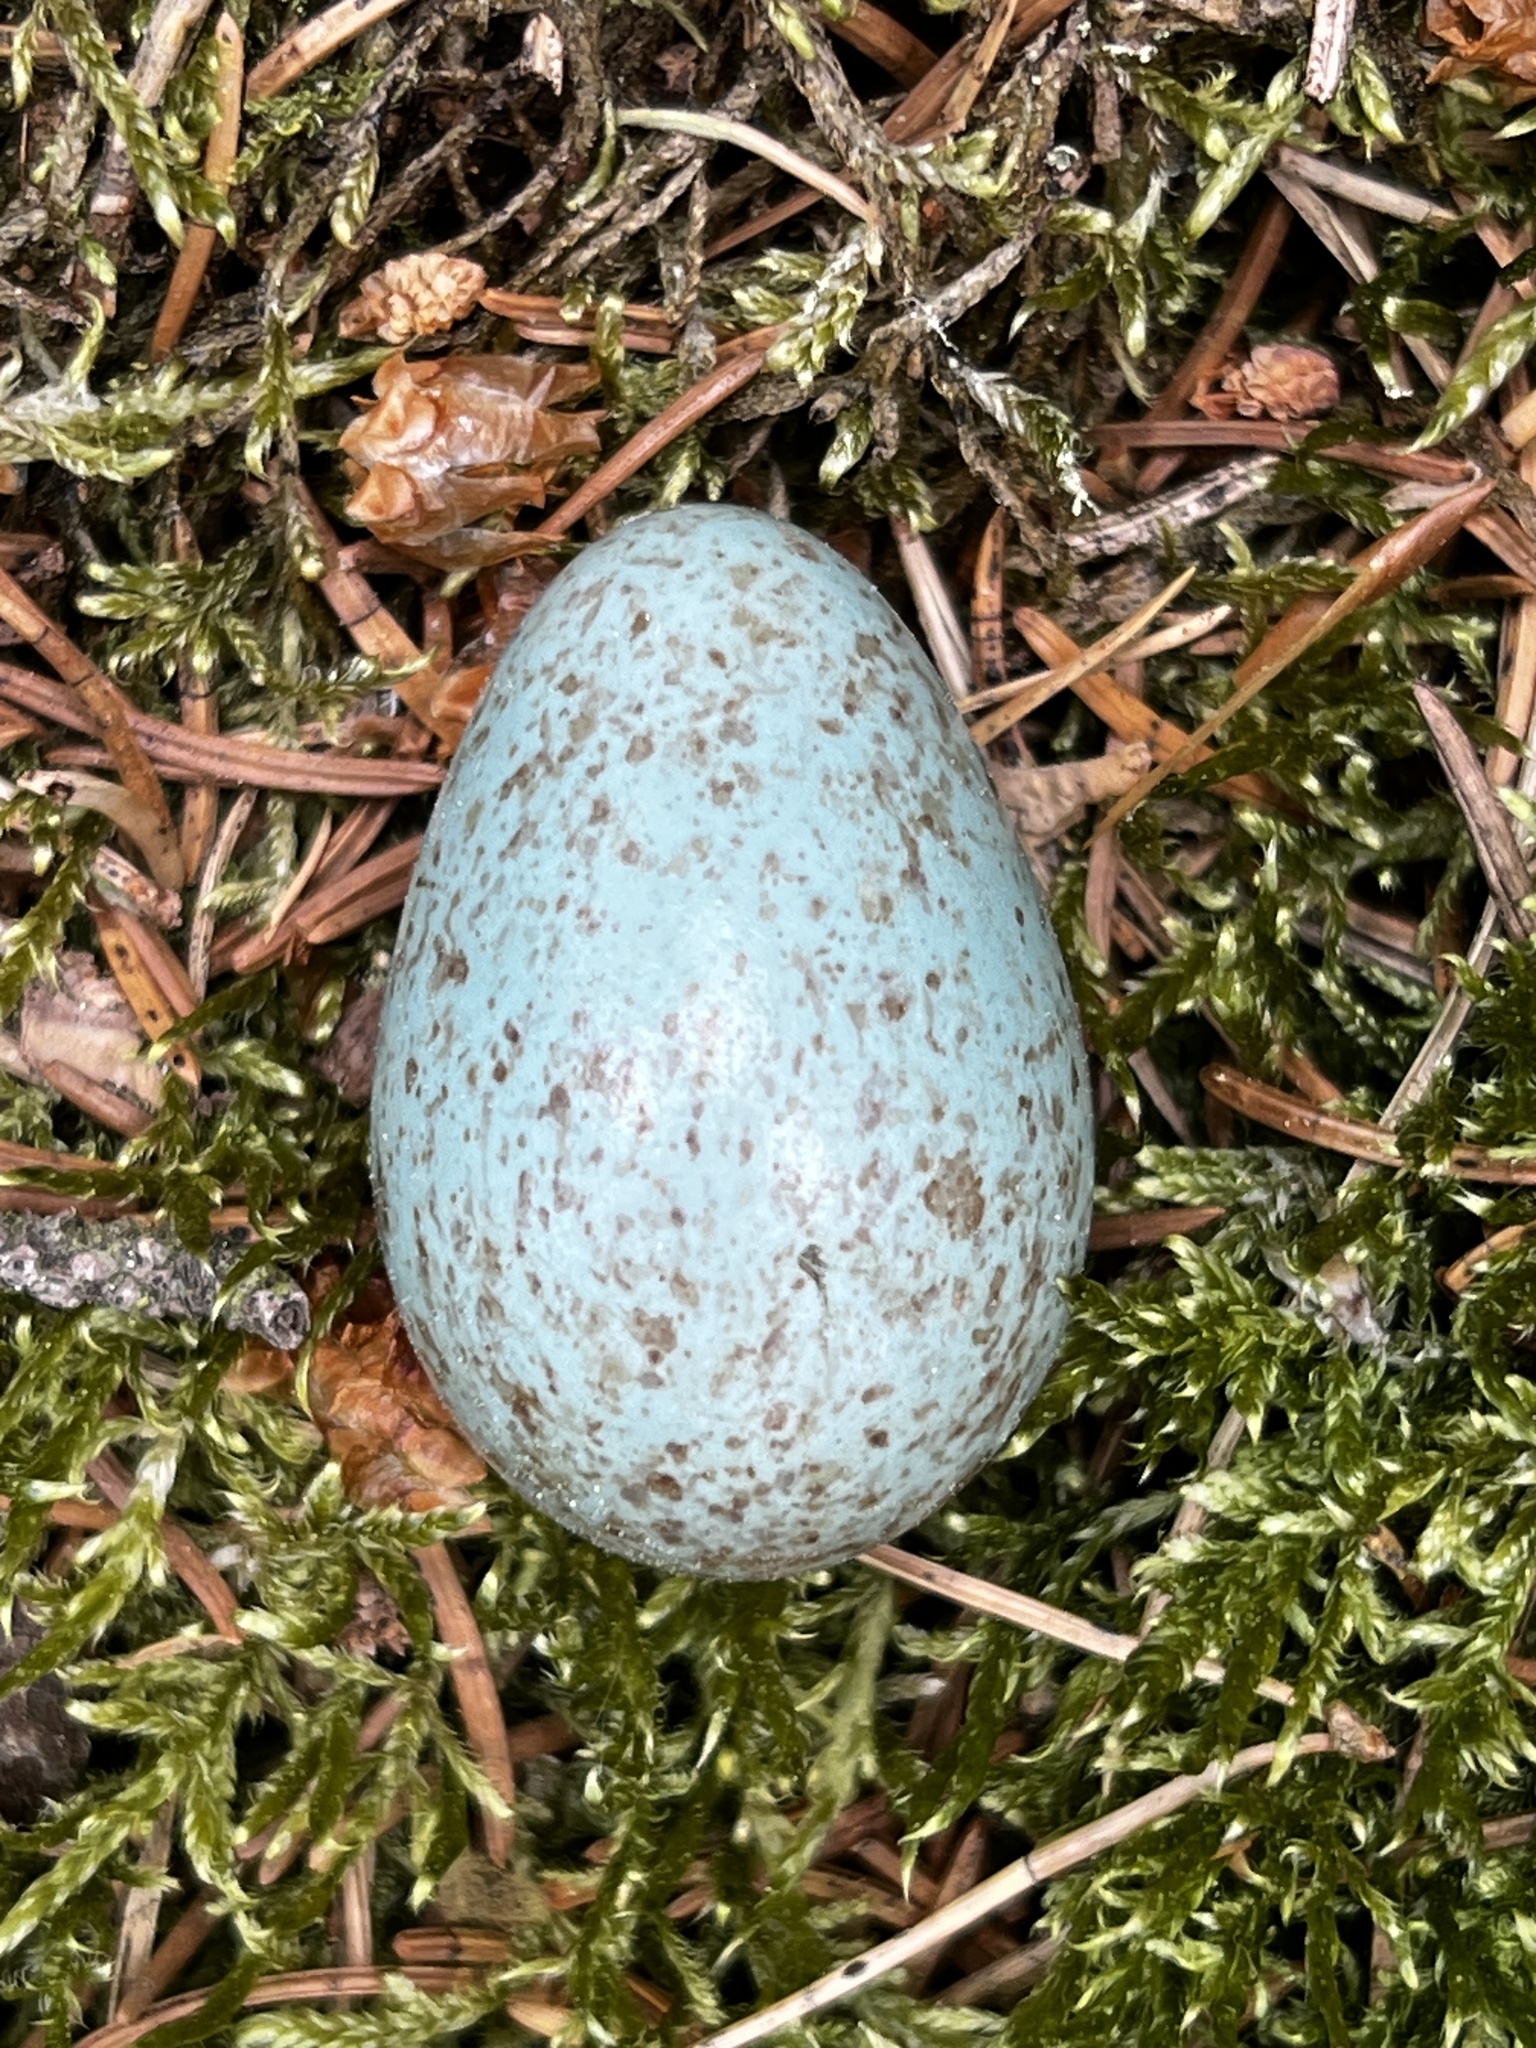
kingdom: Animalia
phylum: Chordata
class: Aves
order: Passeriformes
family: Turdidae
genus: Turdus
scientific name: Turdus merula
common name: Common blackbird
